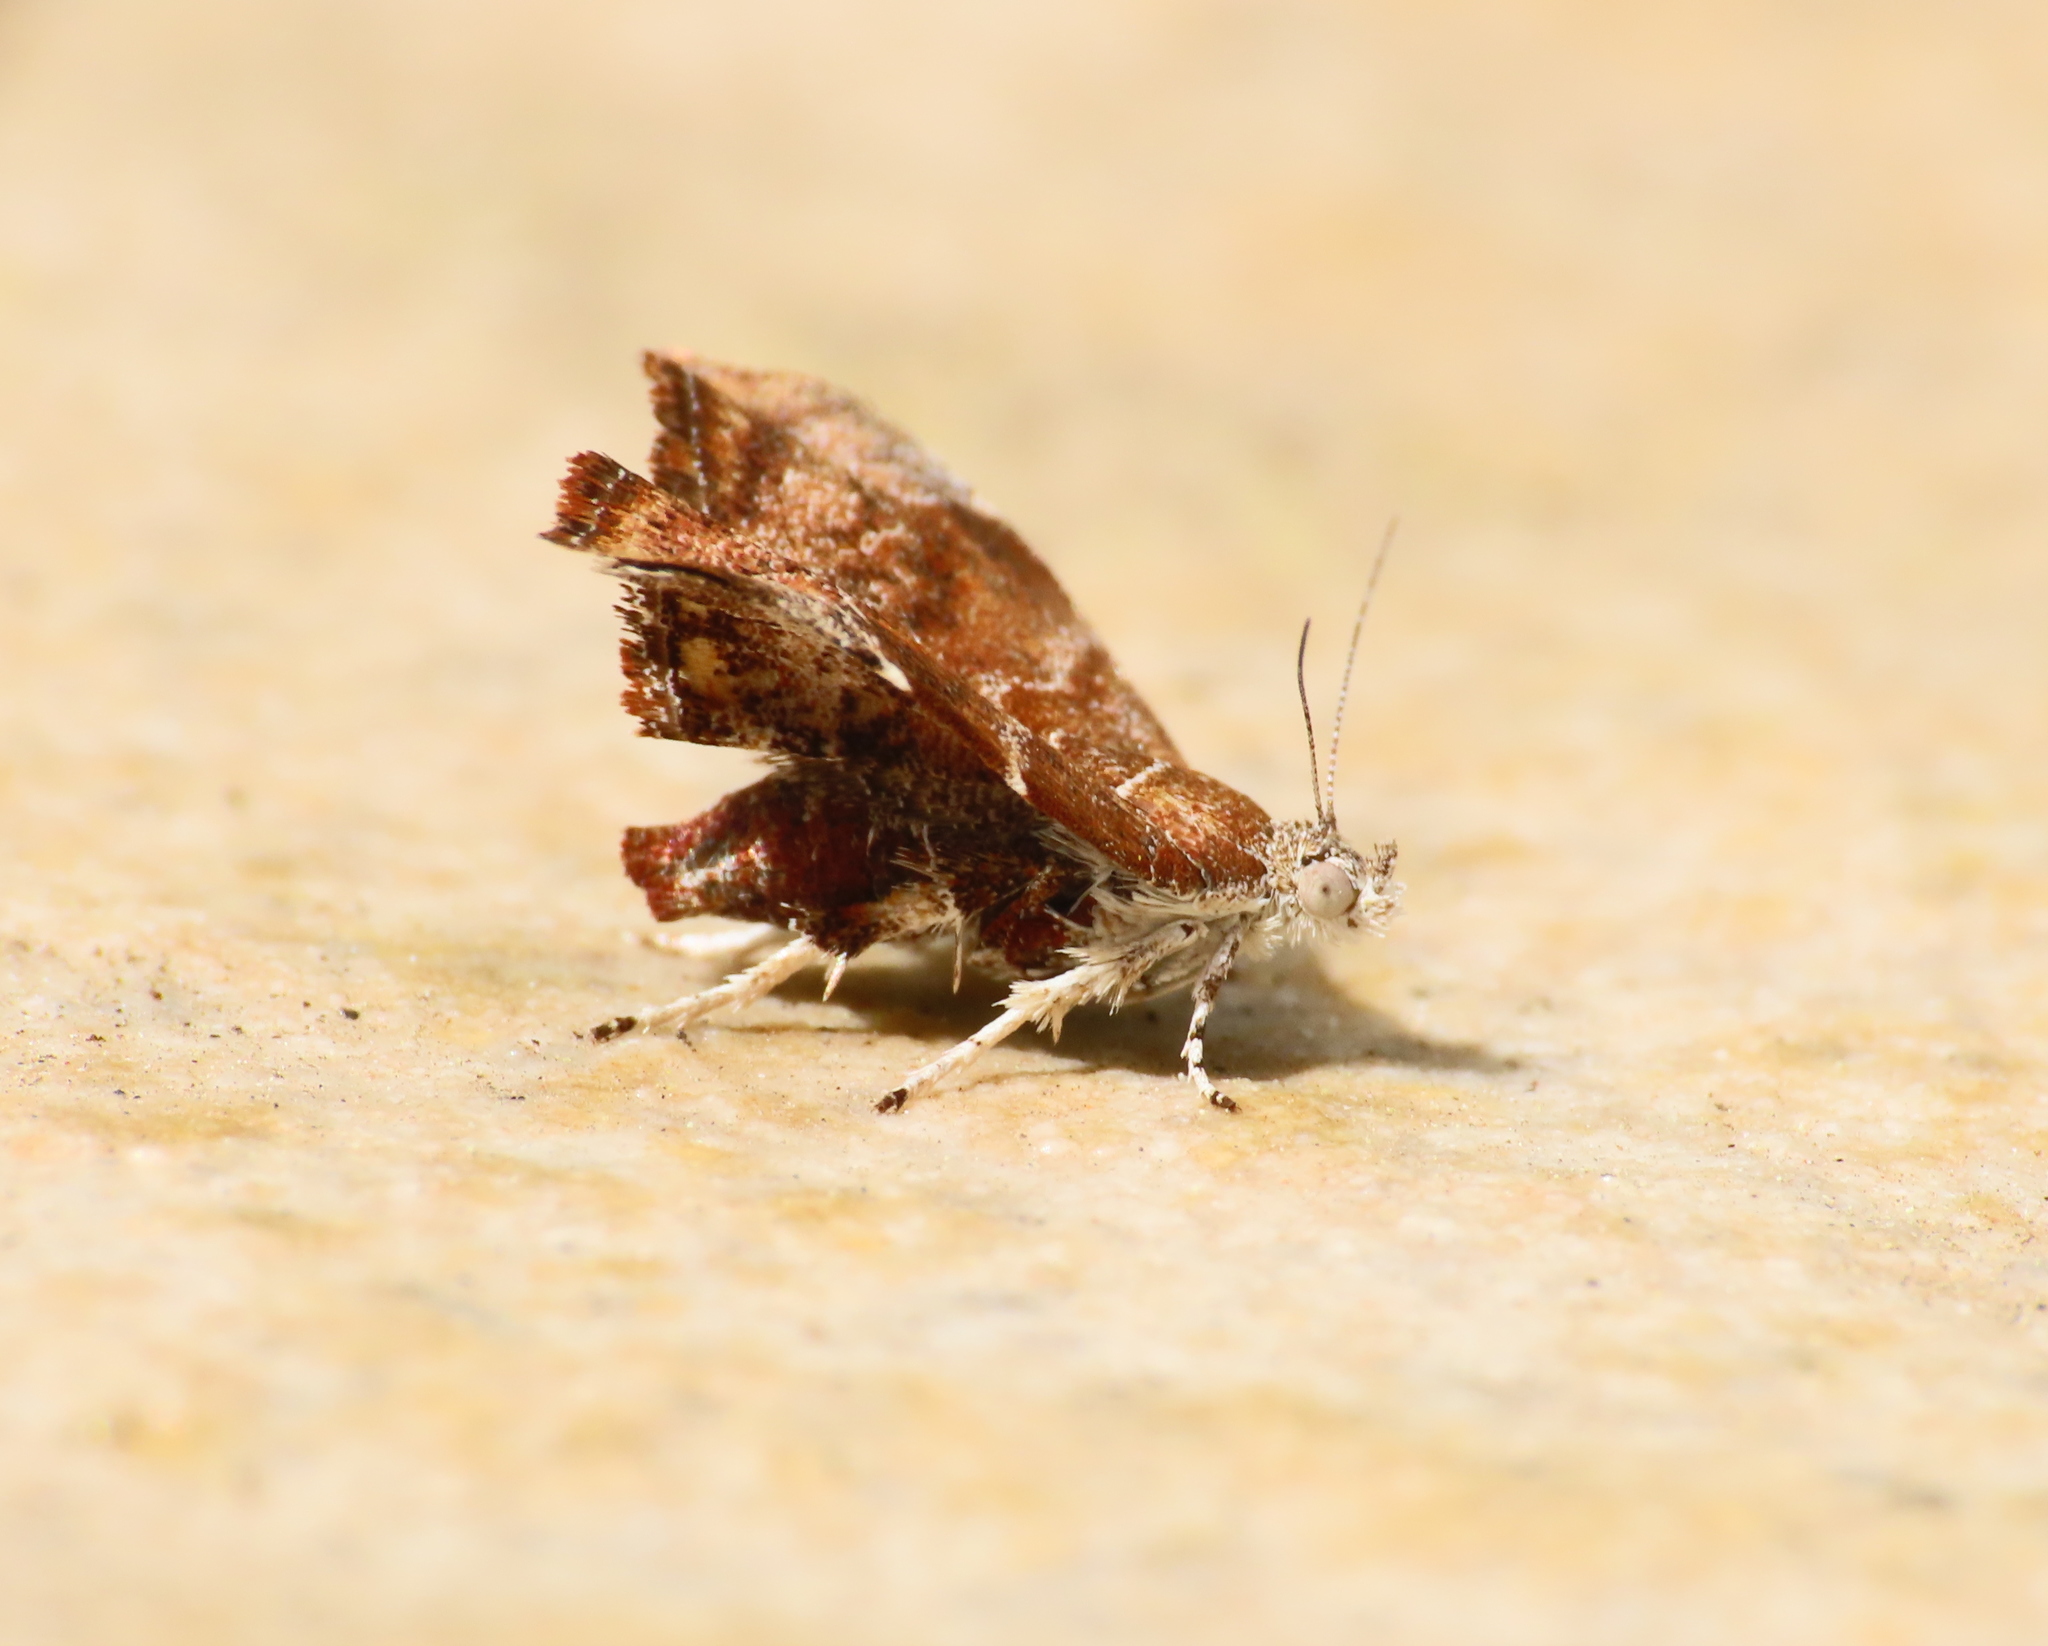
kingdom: Animalia
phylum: Arthropoda
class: Insecta
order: Lepidoptera
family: Choreutidae
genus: Anthophila
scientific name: Anthophila nemorana
